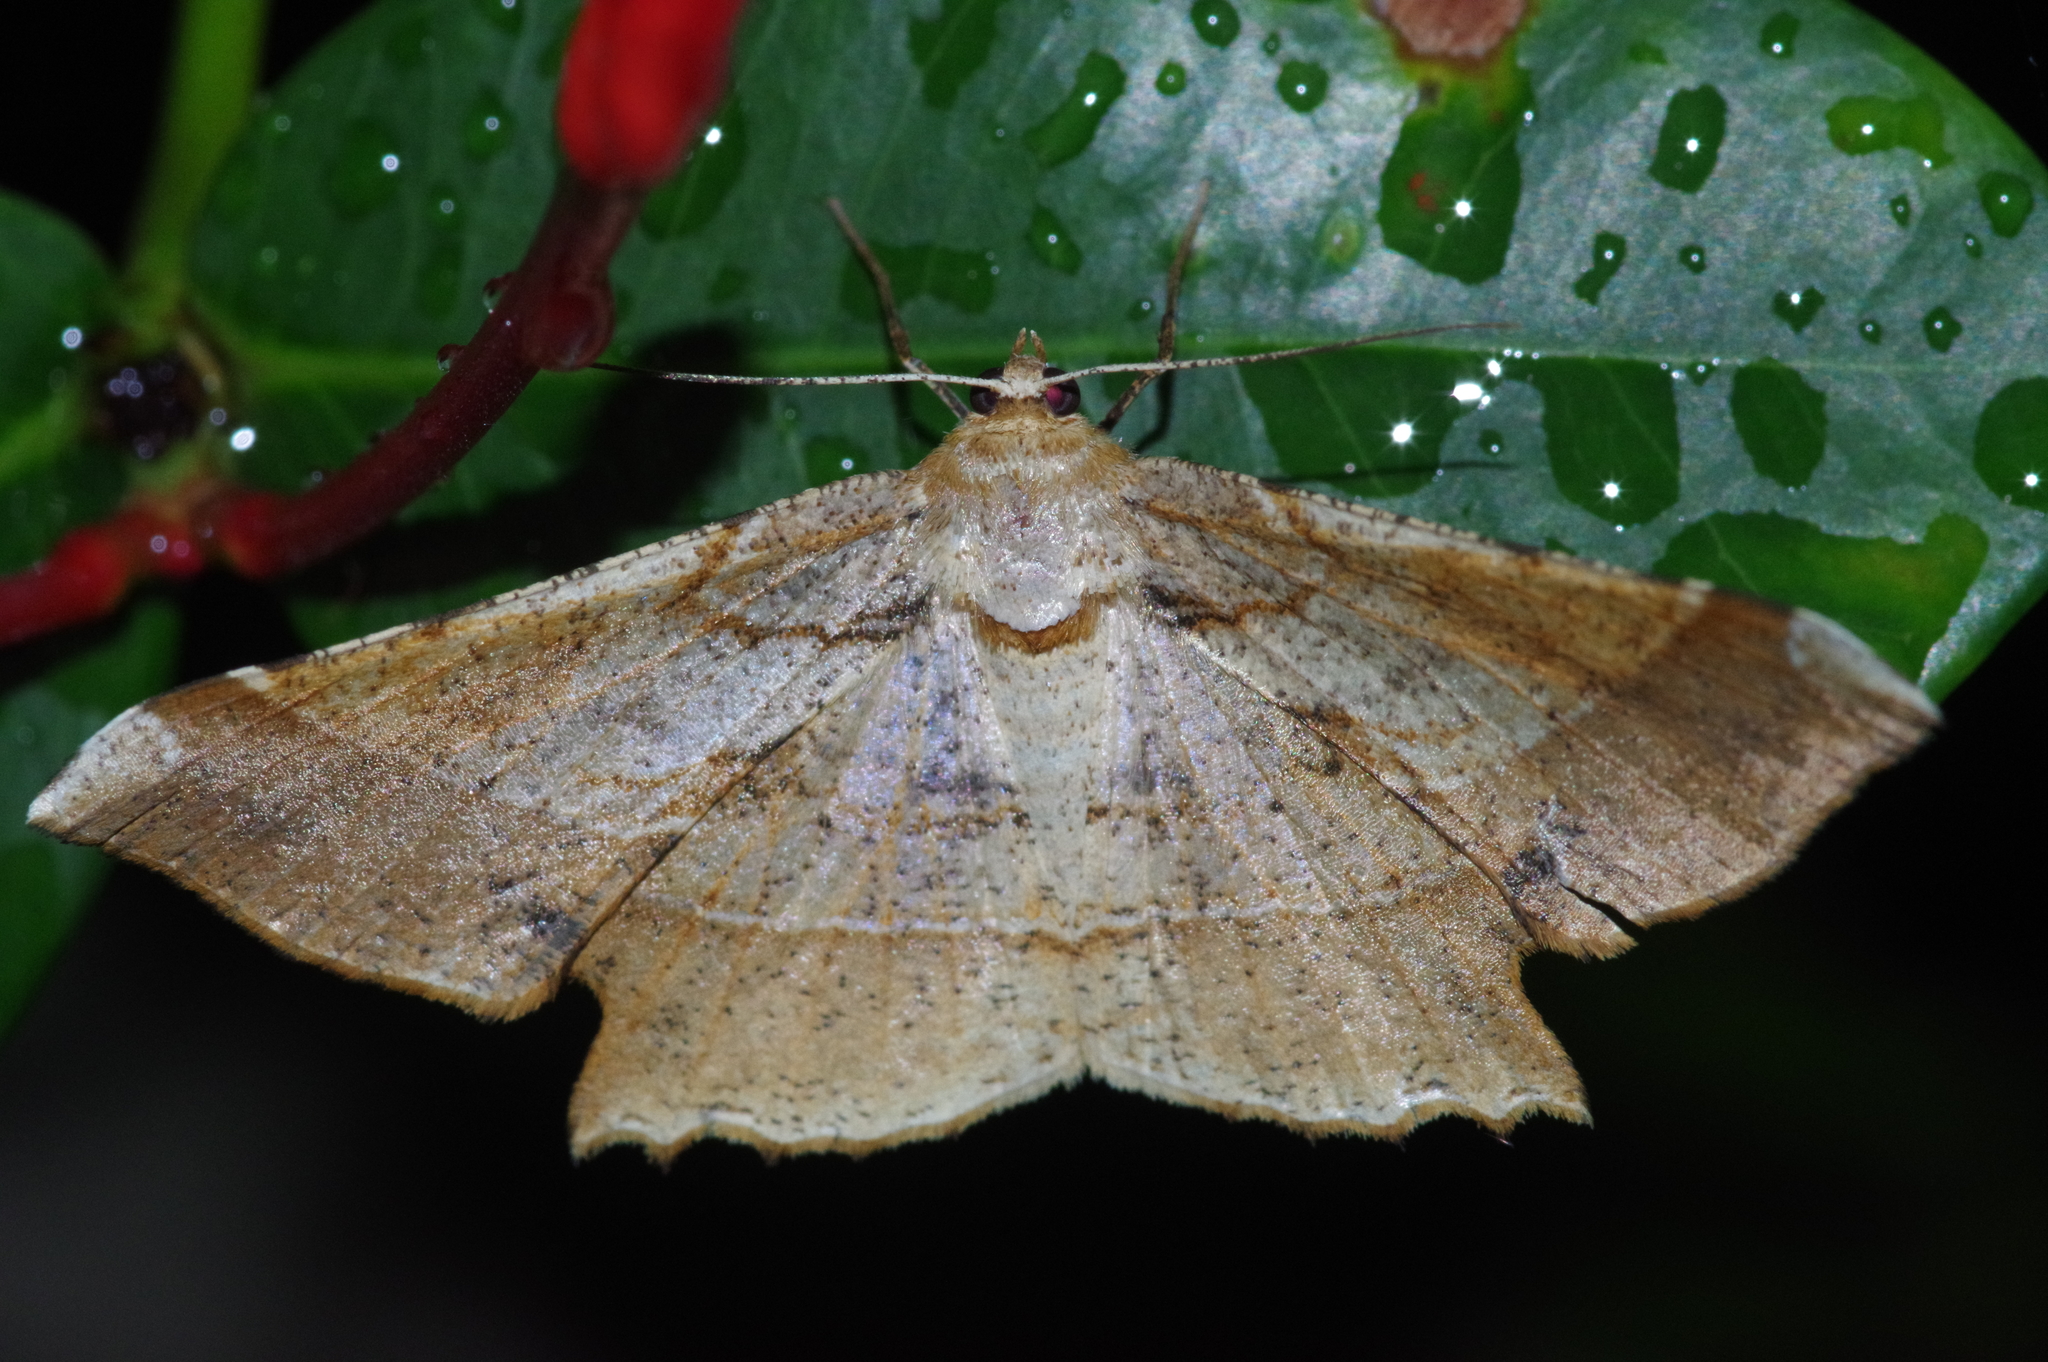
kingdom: Animalia
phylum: Arthropoda
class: Insecta
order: Lepidoptera
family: Geometridae
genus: Krananda
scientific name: Krananda latimarginaria
